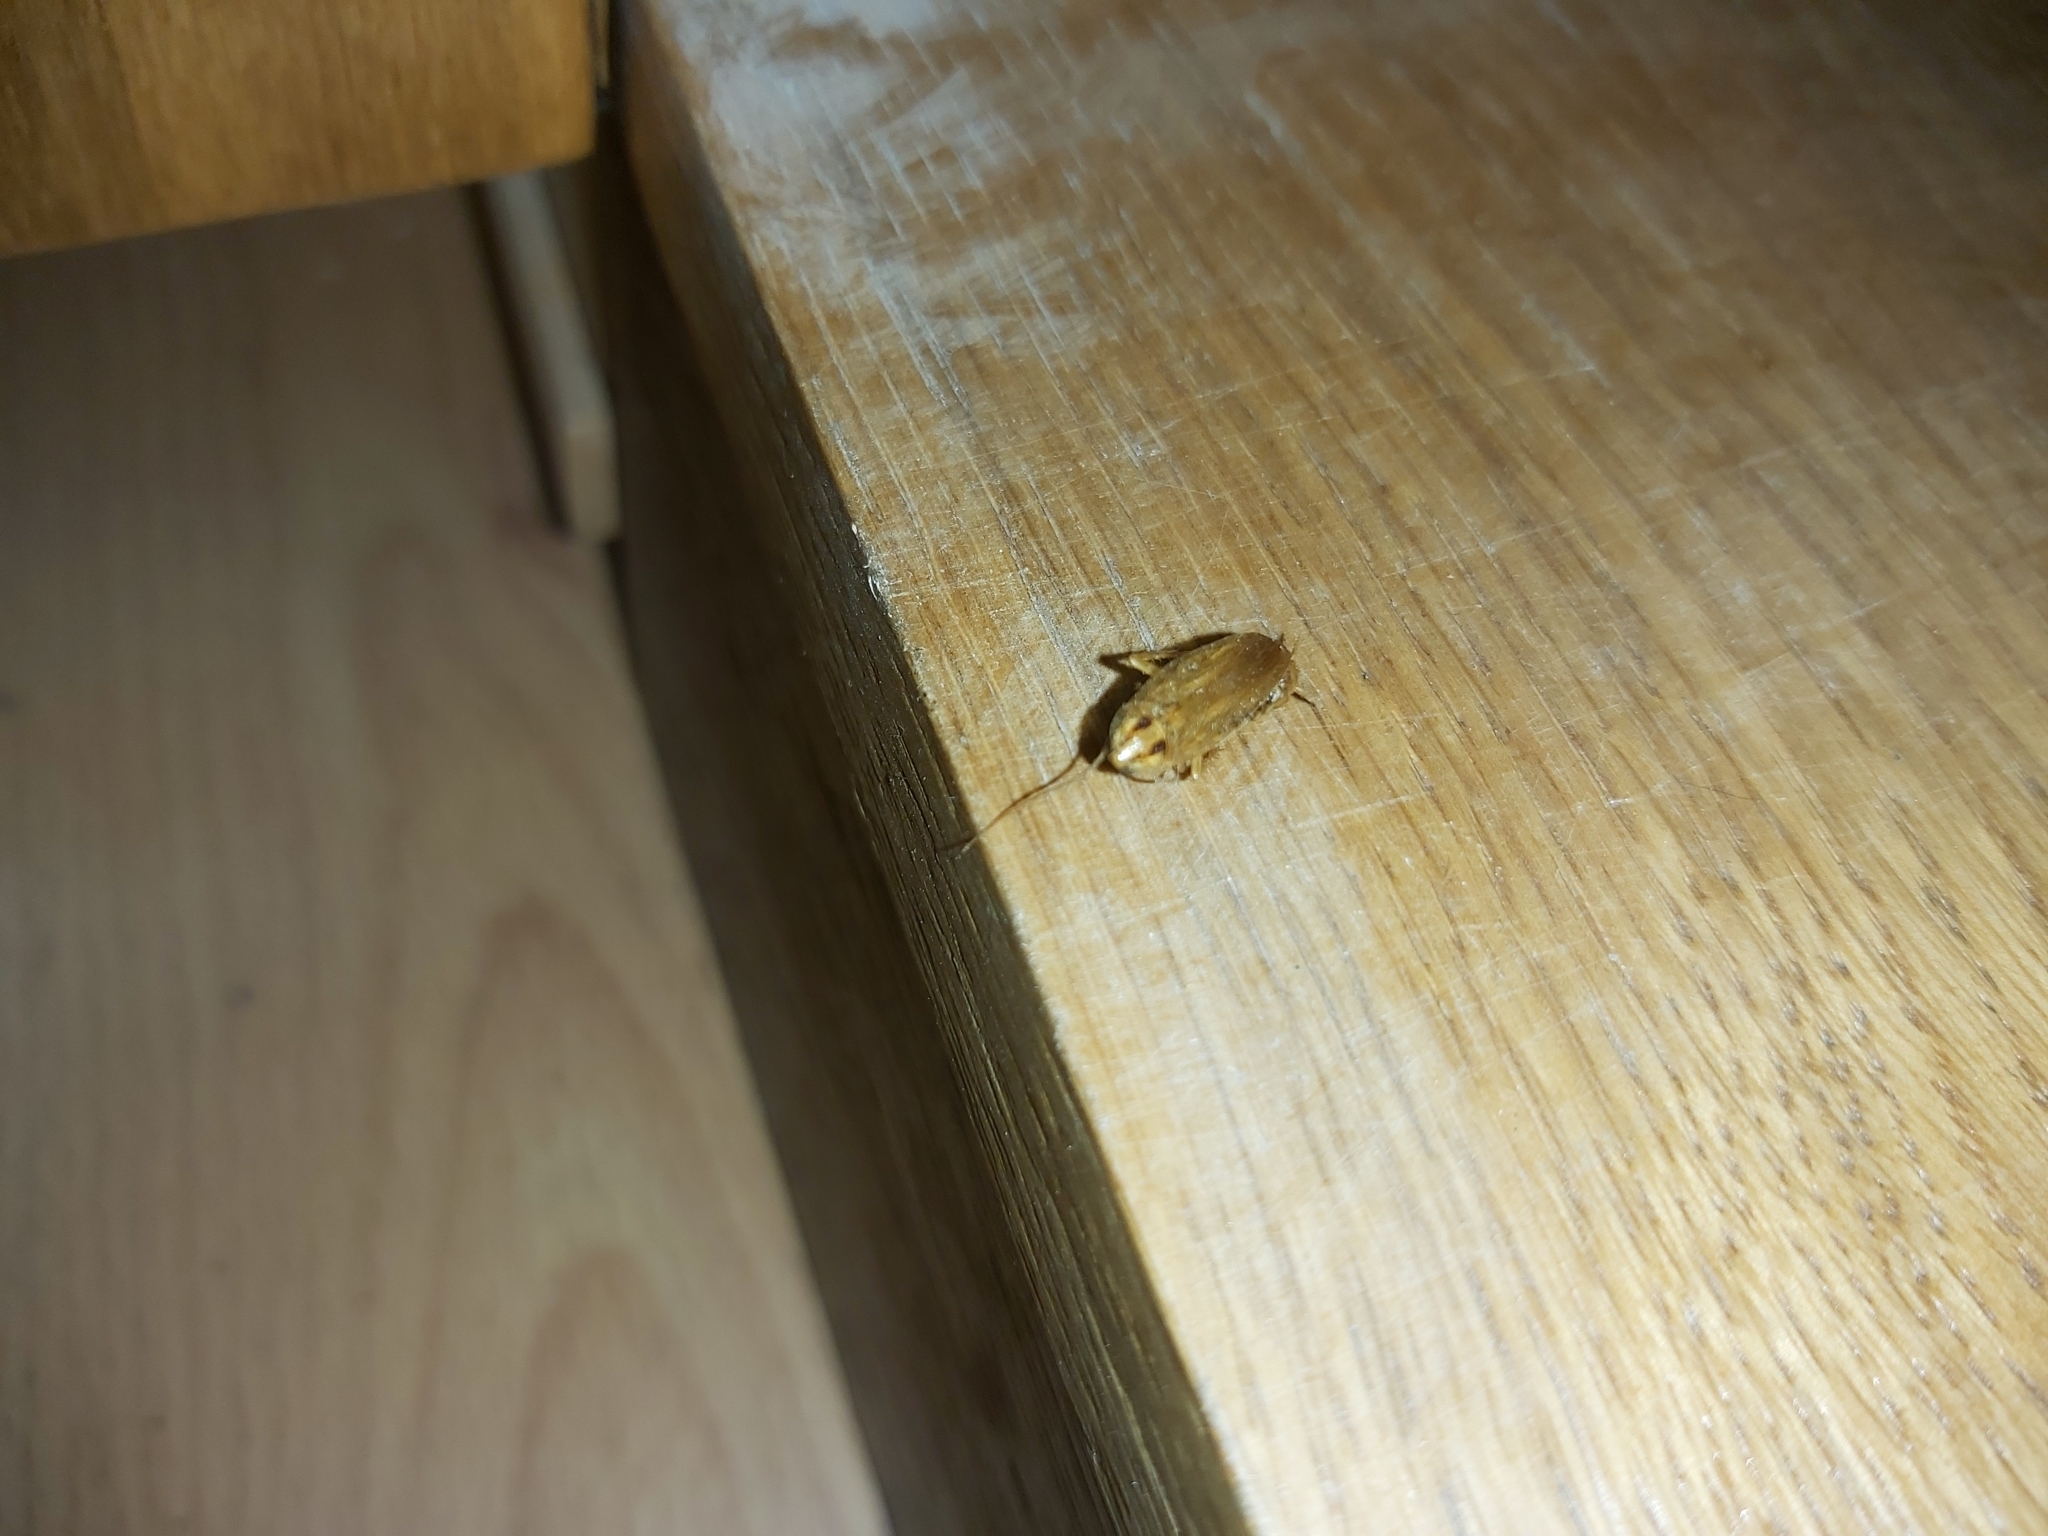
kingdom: Animalia
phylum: Arthropoda
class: Insecta
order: Blattodea
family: Ectobiidae
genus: Blattella
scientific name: Blattella germanica
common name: German cockroach
